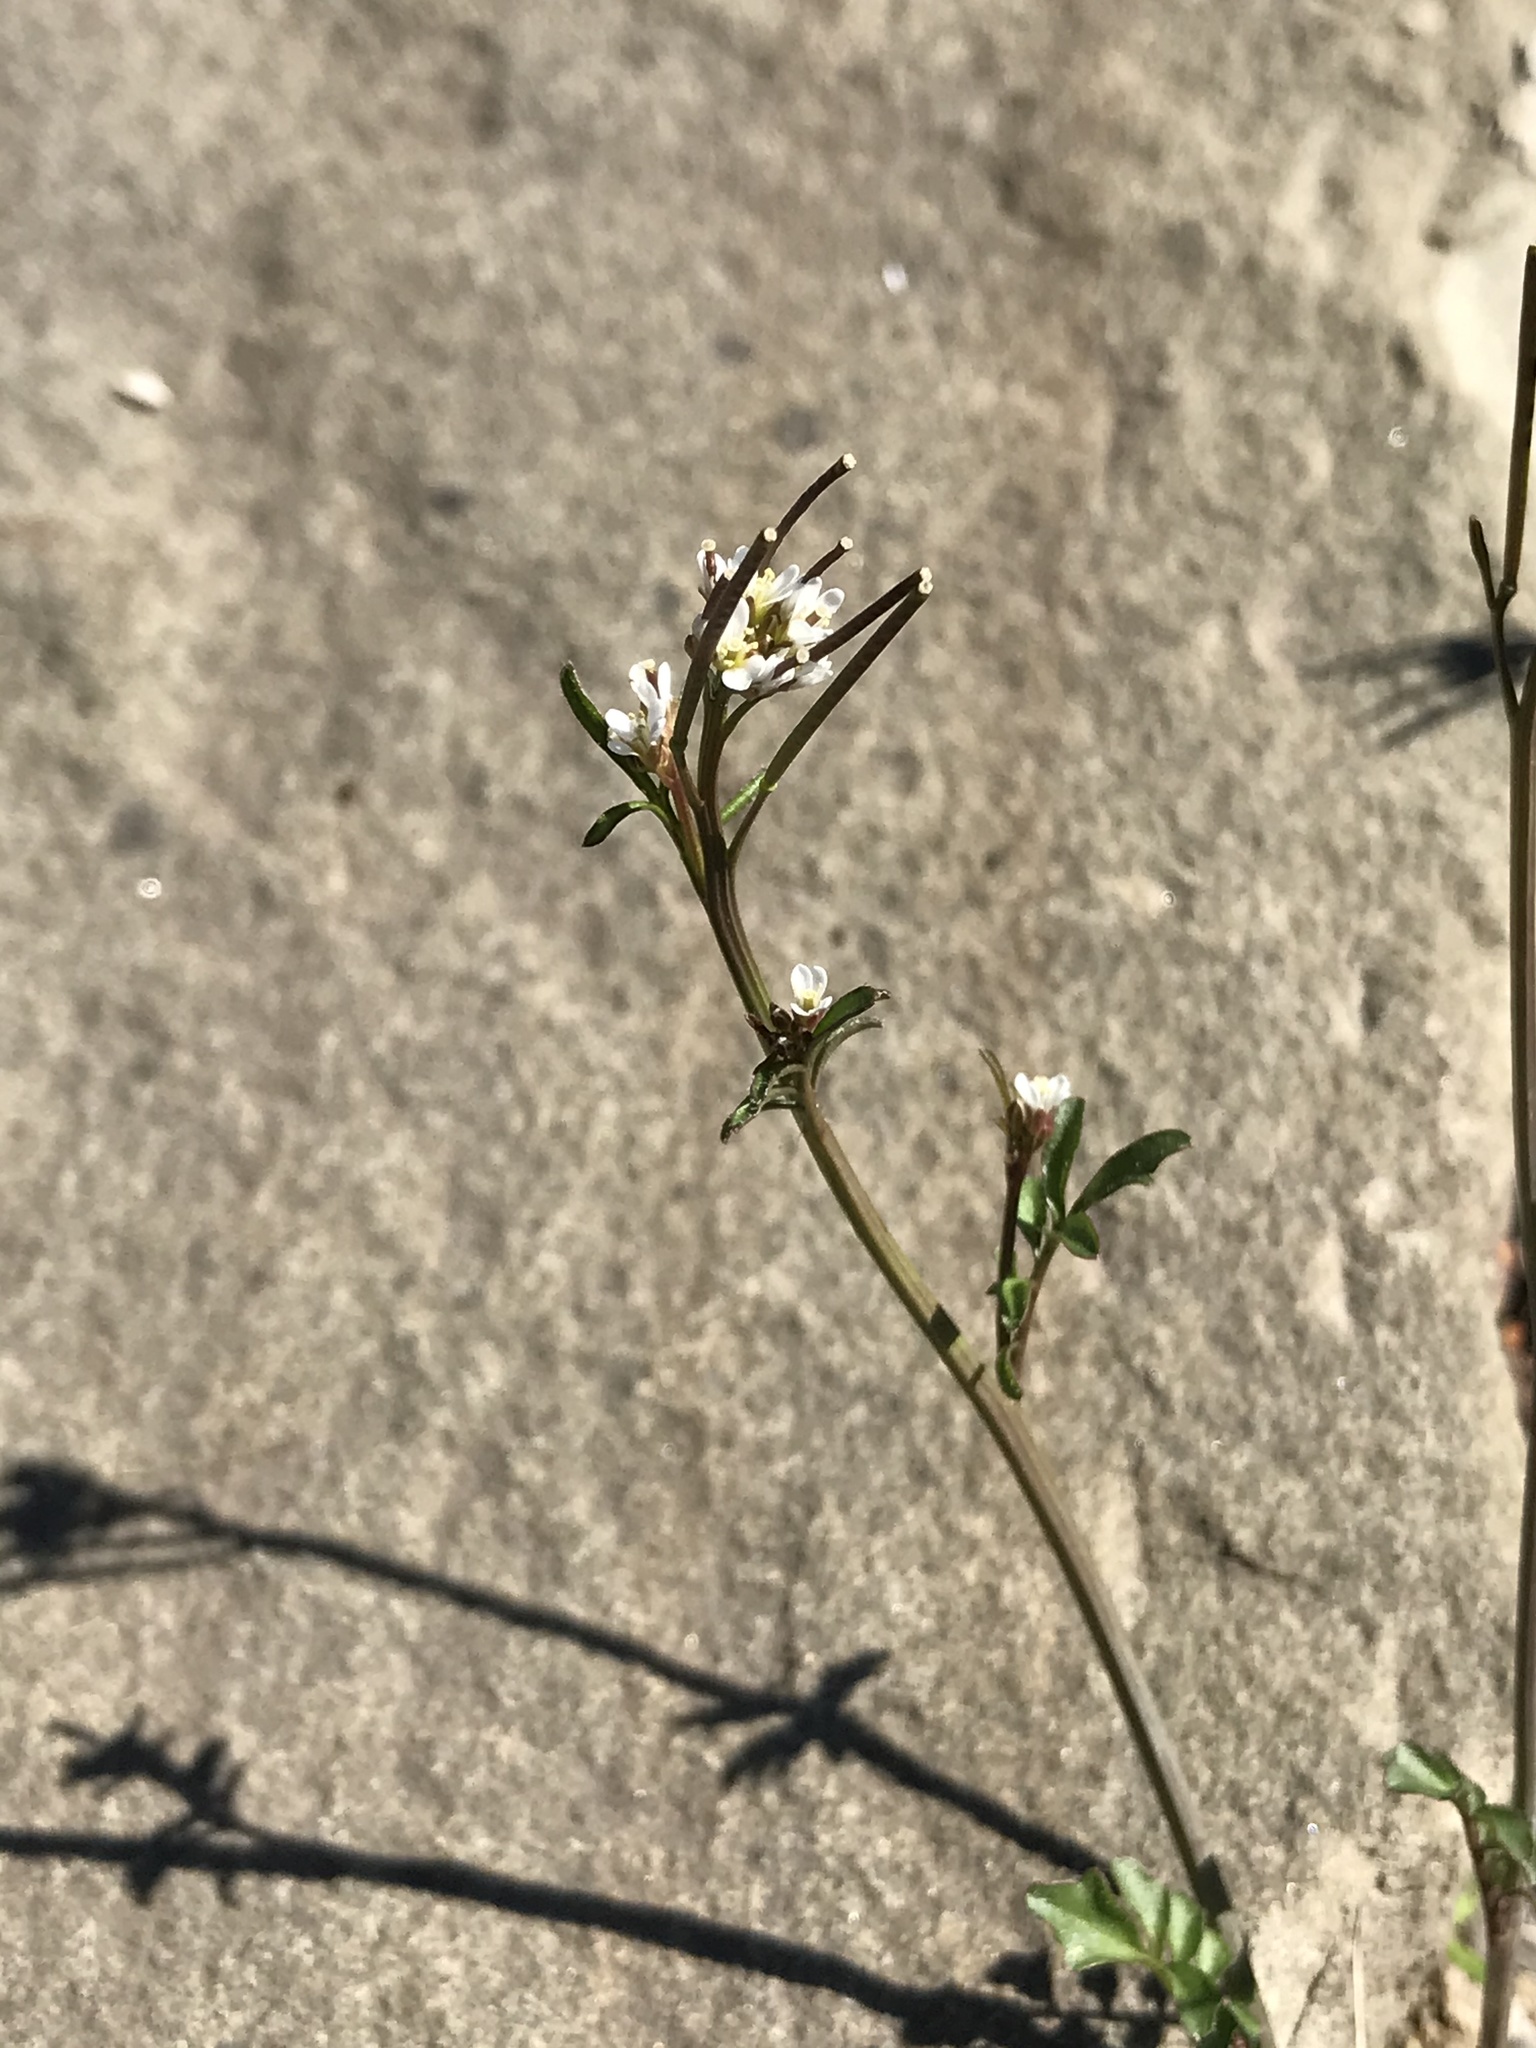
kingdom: Plantae
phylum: Tracheophyta
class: Magnoliopsida
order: Brassicales
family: Brassicaceae
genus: Cardamine
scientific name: Cardamine hirsuta
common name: Hairy bittercress
